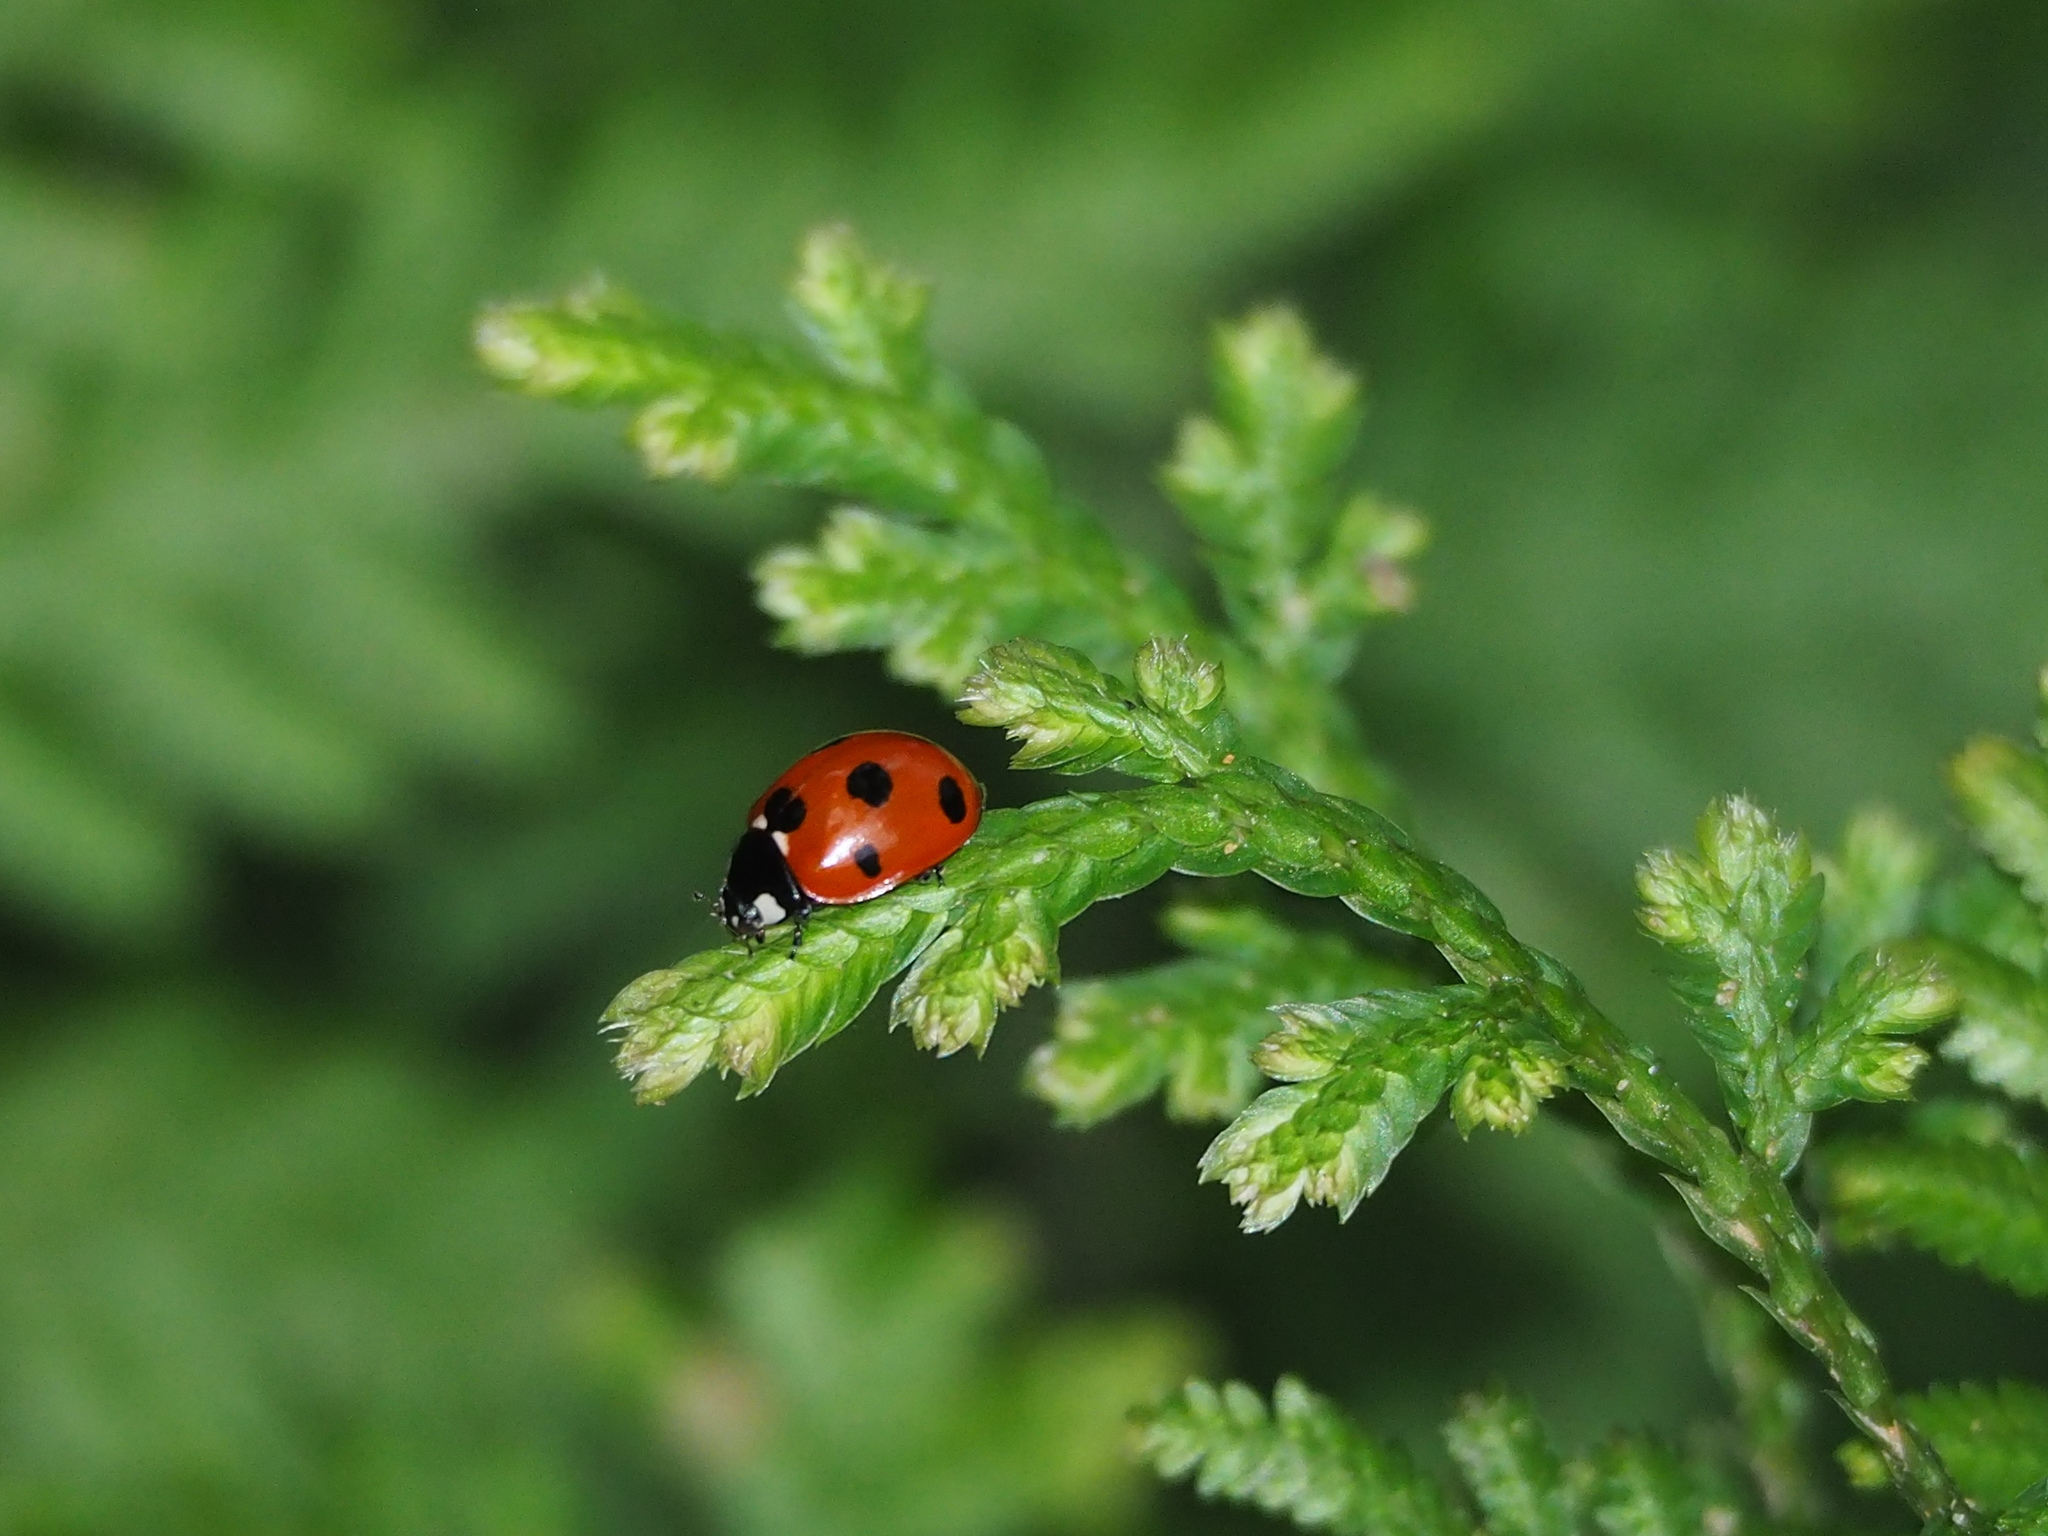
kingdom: Animalia
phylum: Arthropoda
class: Insecta
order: Coleoptera
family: Coccinellidae
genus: Coccinella
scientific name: Coccinella septempunctata
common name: Sevenspotted lady beetle
